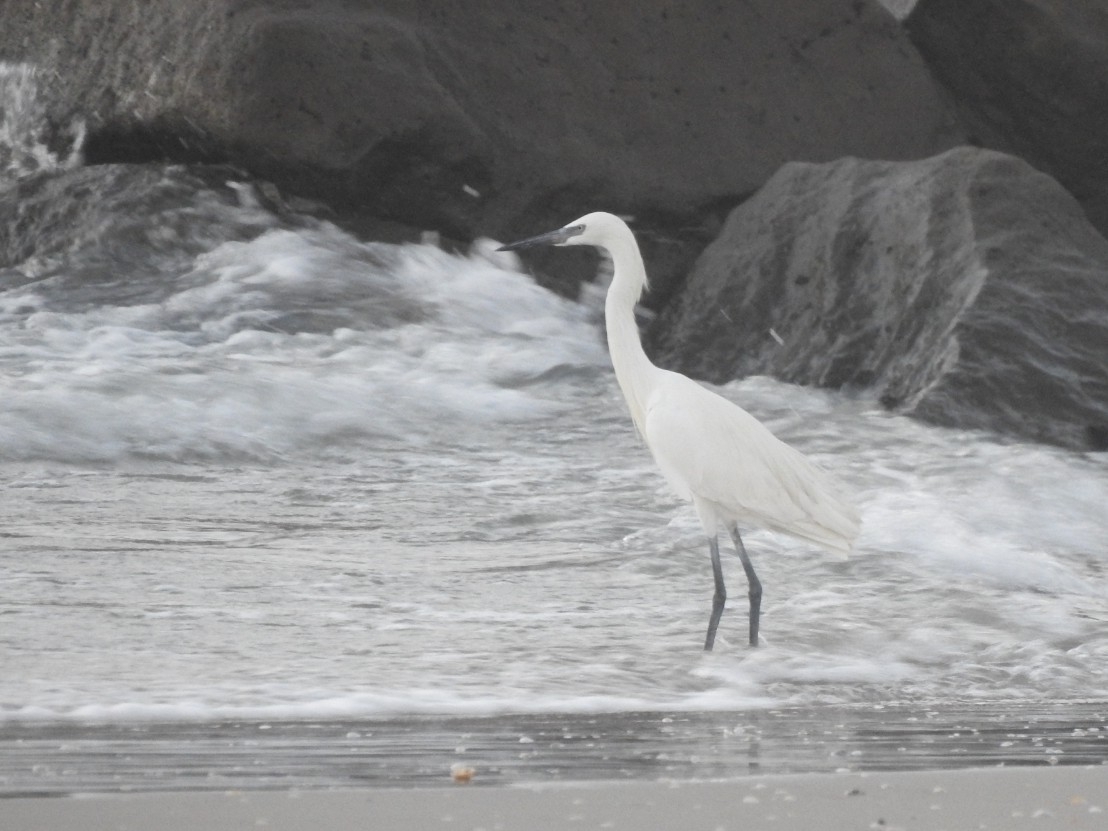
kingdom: Animalia
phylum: Chordata
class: Aves
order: Pelecaniformes
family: Ardeidae
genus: Egretta
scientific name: Egretta rufescens
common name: Reddish egret
